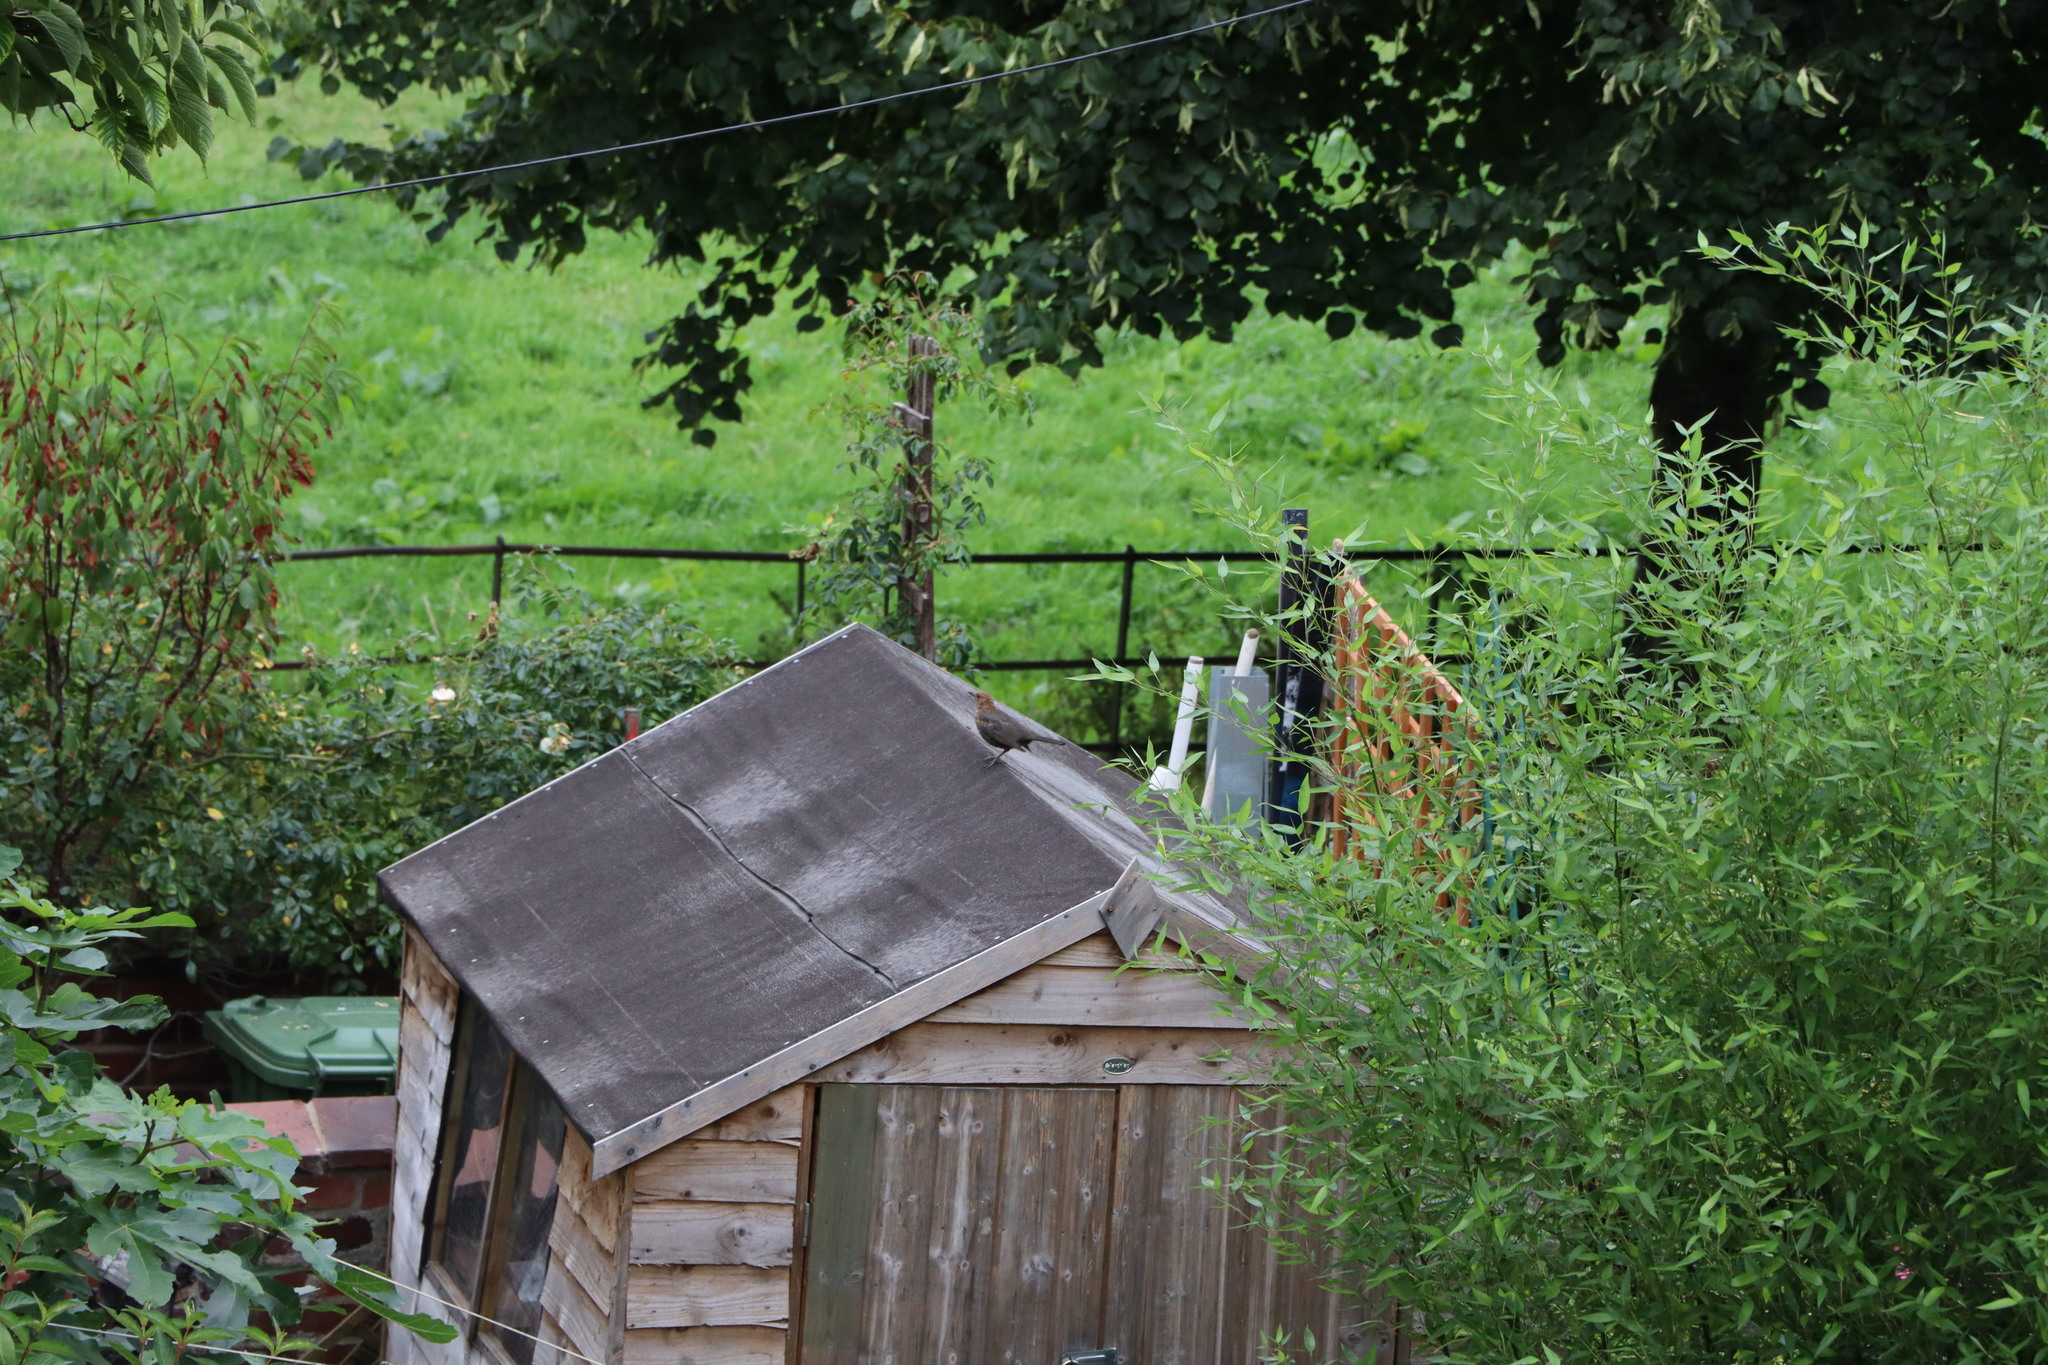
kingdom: Animalia
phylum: Chordata
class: Aves
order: Passeriformes
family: Turdidae
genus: Turdus
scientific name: Turdus merula
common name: Common blackbird
